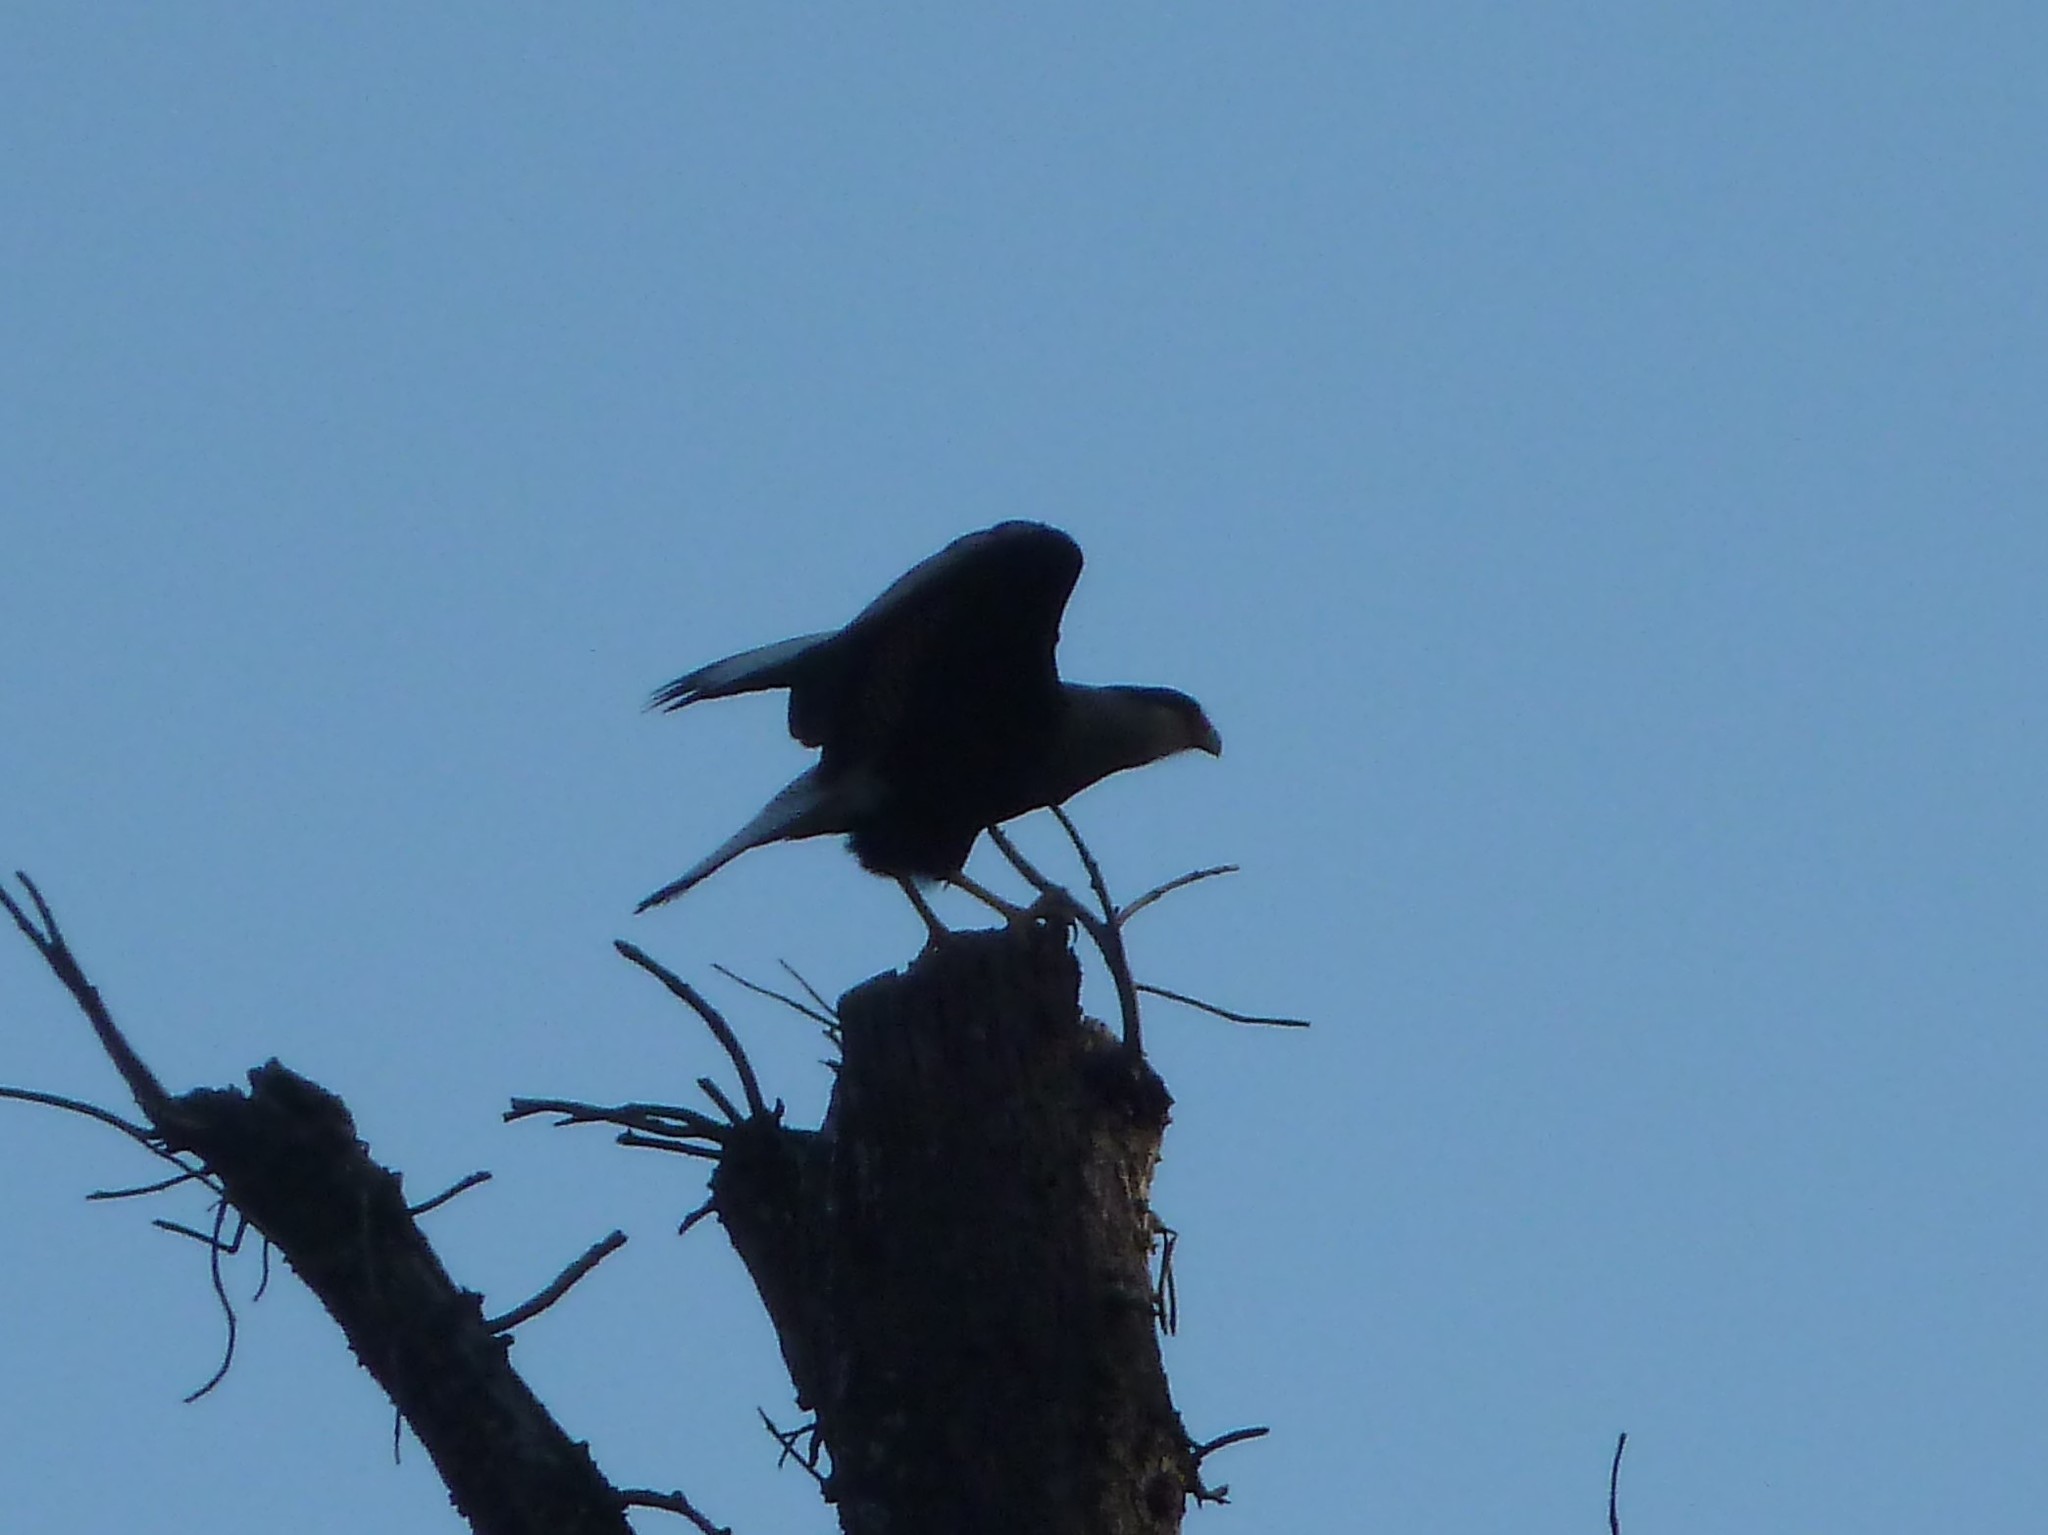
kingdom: Animalia
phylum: Chordata
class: Aves
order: Falconiformes
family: Falconidae
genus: Caracara
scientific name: Caracara plancus
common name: Southern caracara
